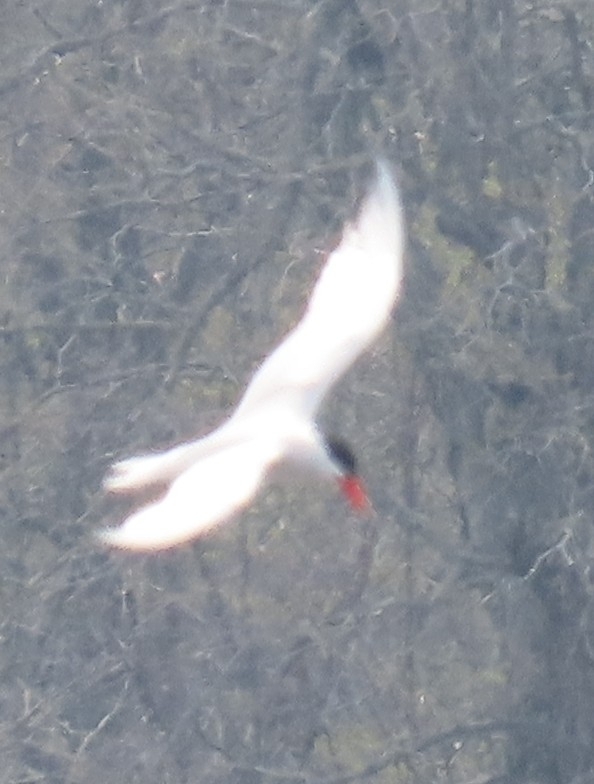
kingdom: Animalia
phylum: Chordata
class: Aves
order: Charadriiformes
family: Laridae
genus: Hydroprogne
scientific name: Hydroprogne caspia
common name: Caspian tern
